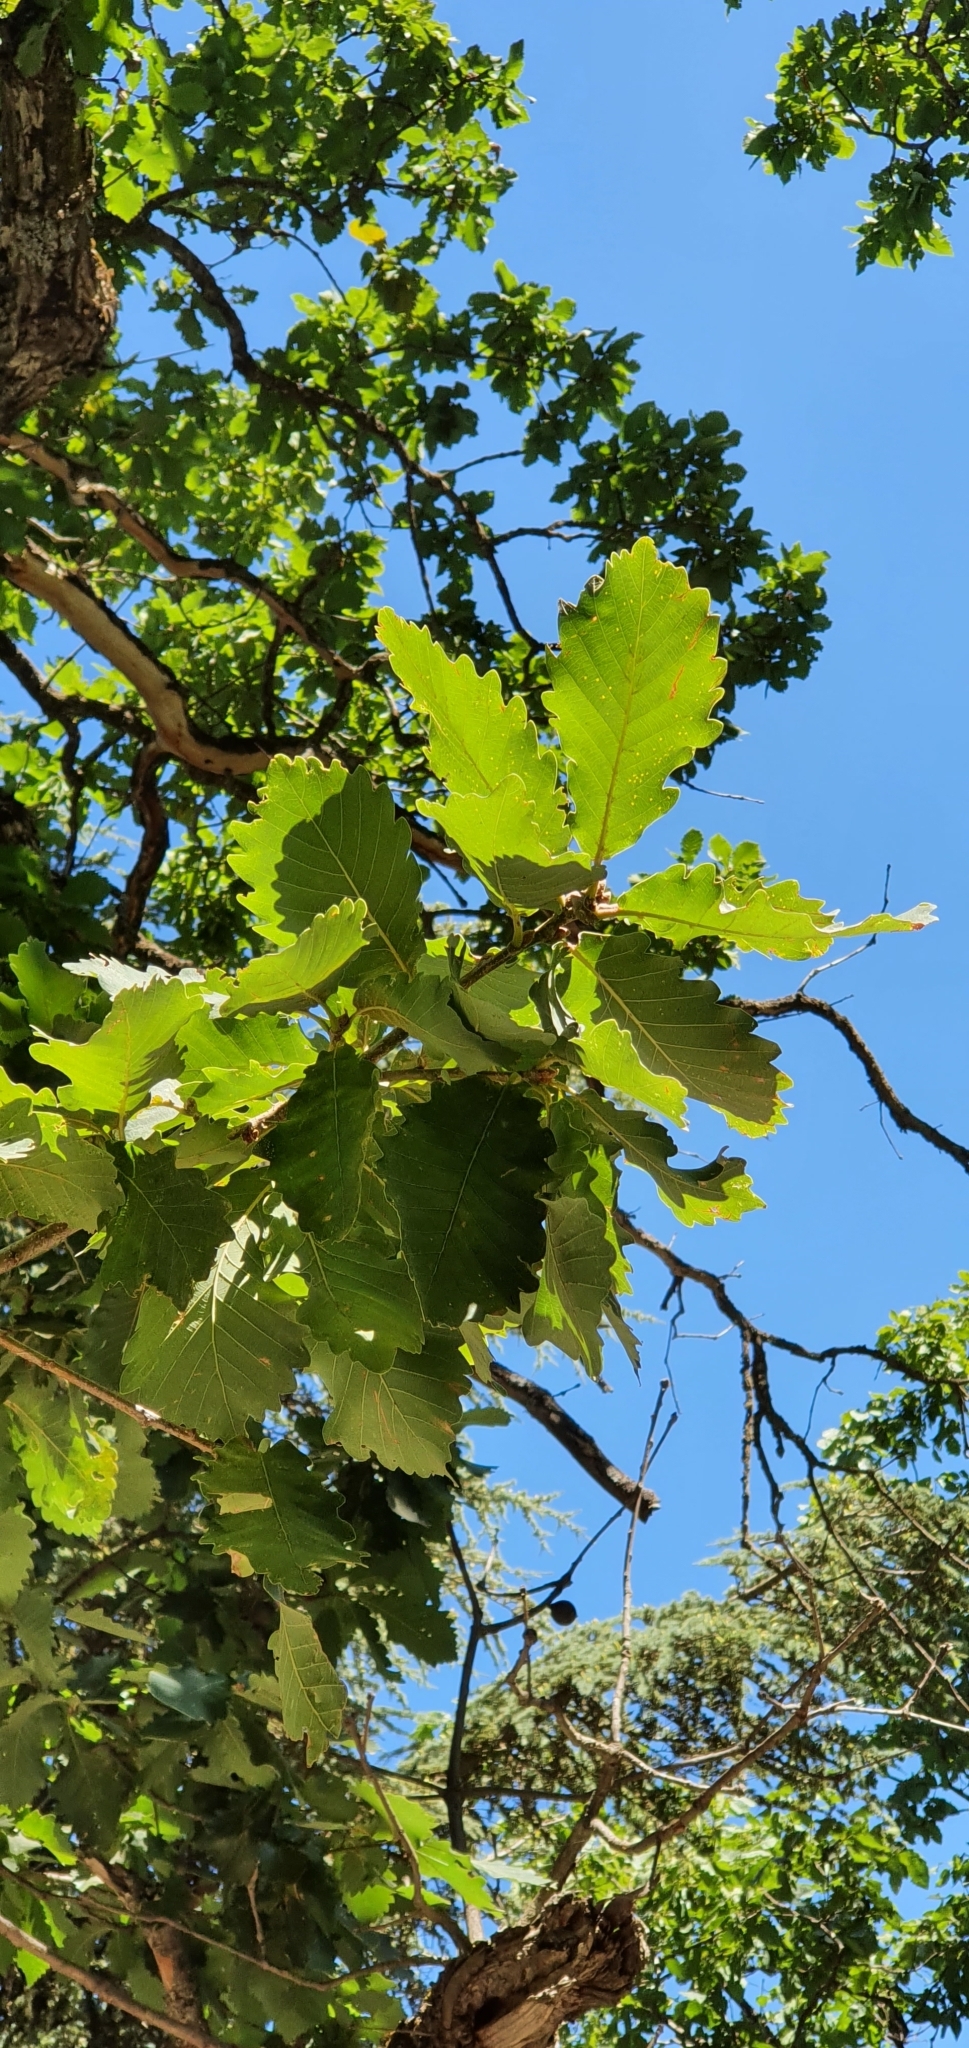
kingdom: Plantae
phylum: Tracheophyta
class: Magnoliopsida
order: Fagales
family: Fagaceae
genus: Quercus
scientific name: Quercus canariensis
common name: Algerian oak
